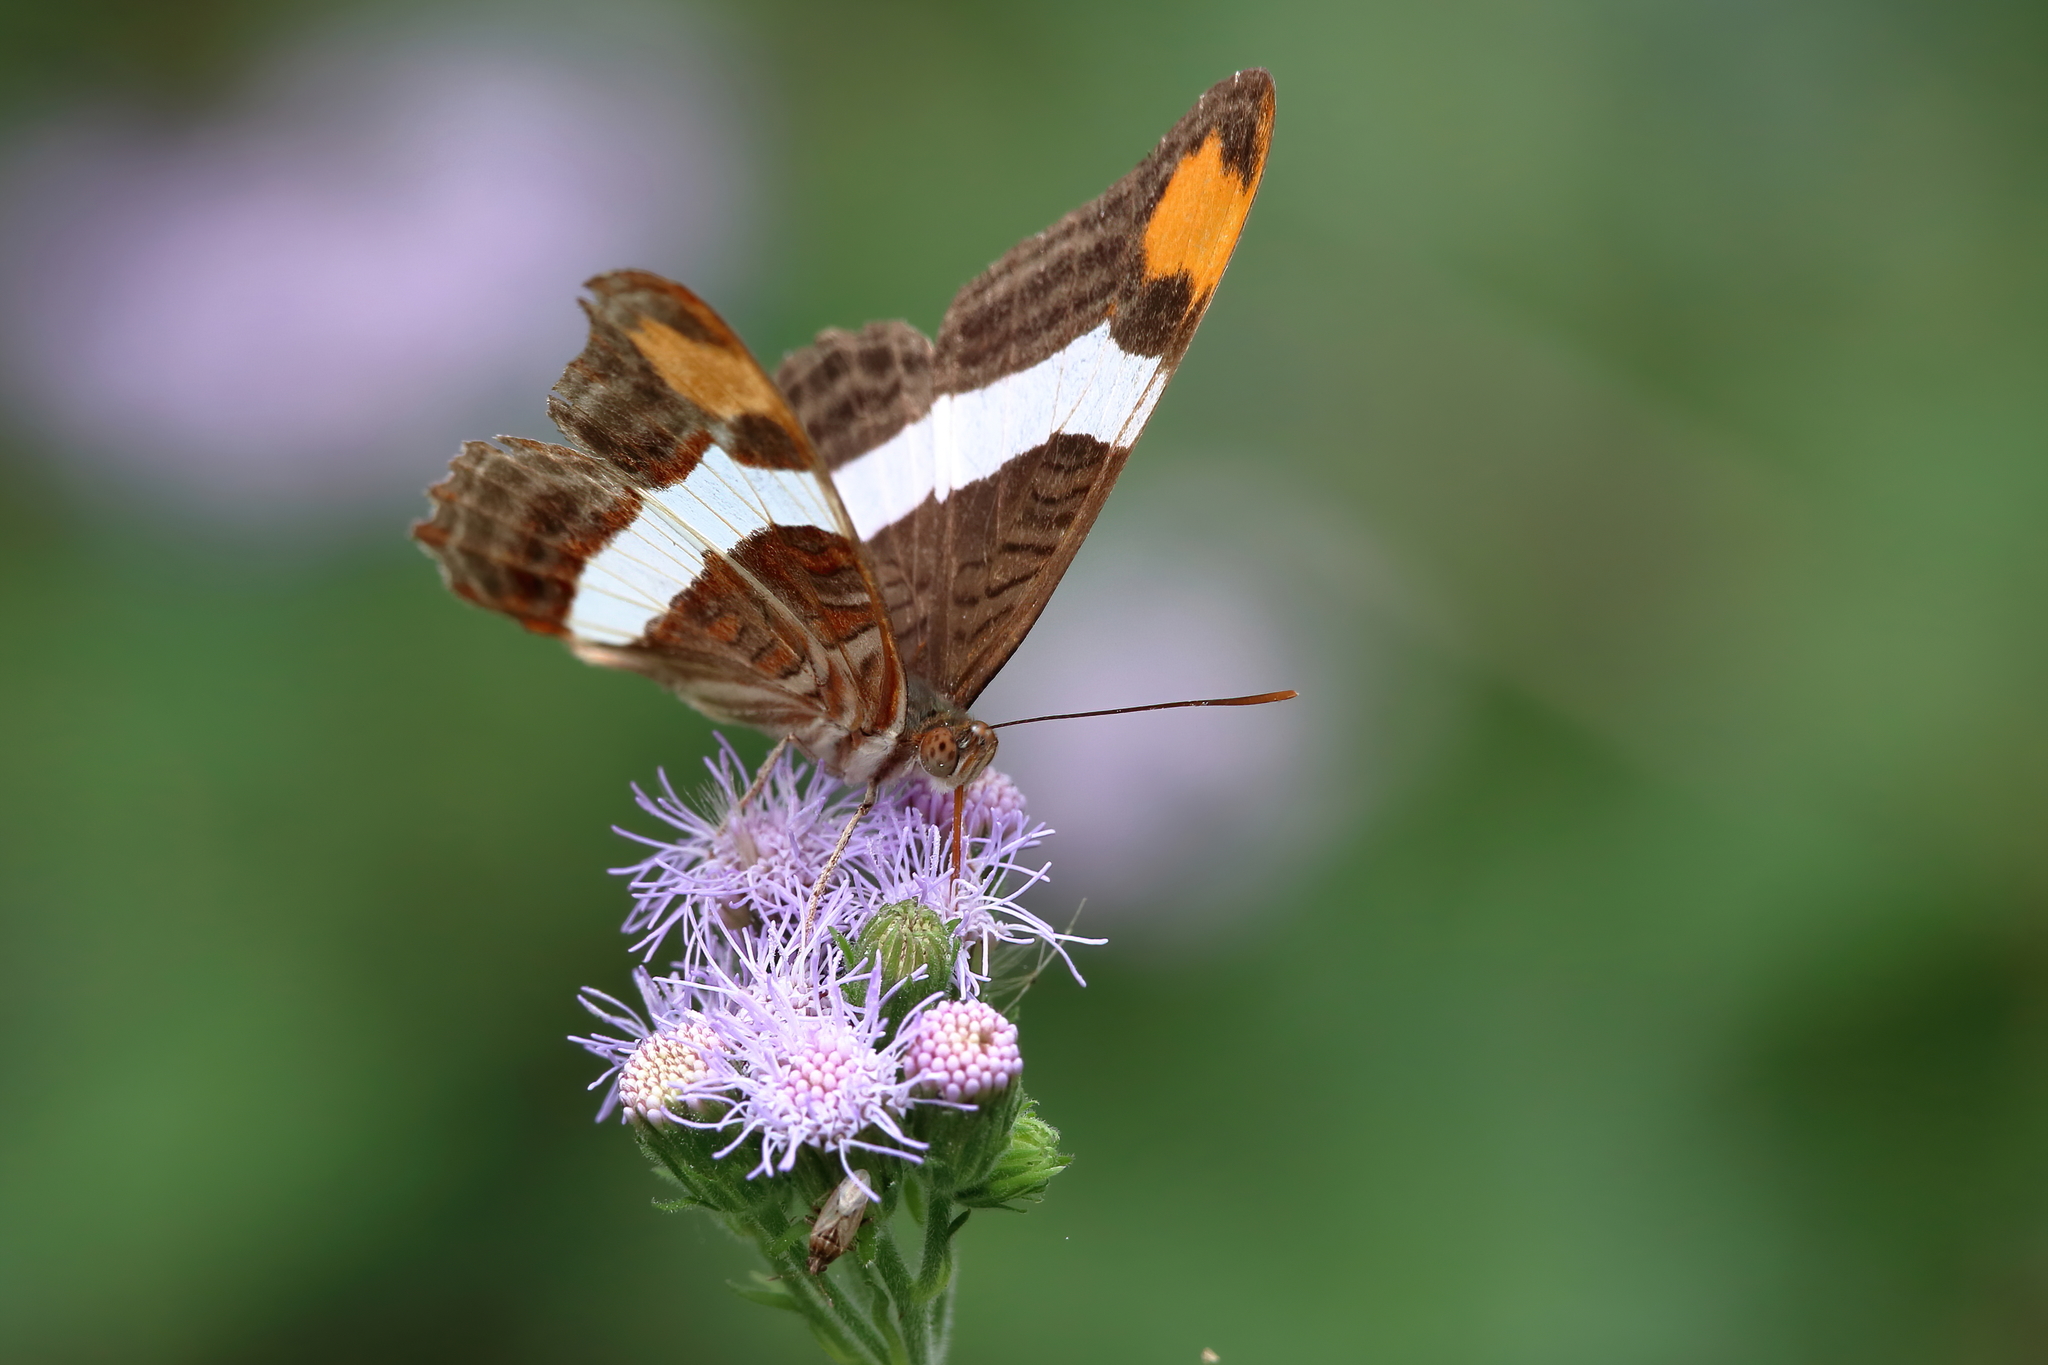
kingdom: Animalia
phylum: Arthropoda
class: Insecta
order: Lepidoptera
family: Nymphalidae
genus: Limenitis
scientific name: Limenitis fessonia
